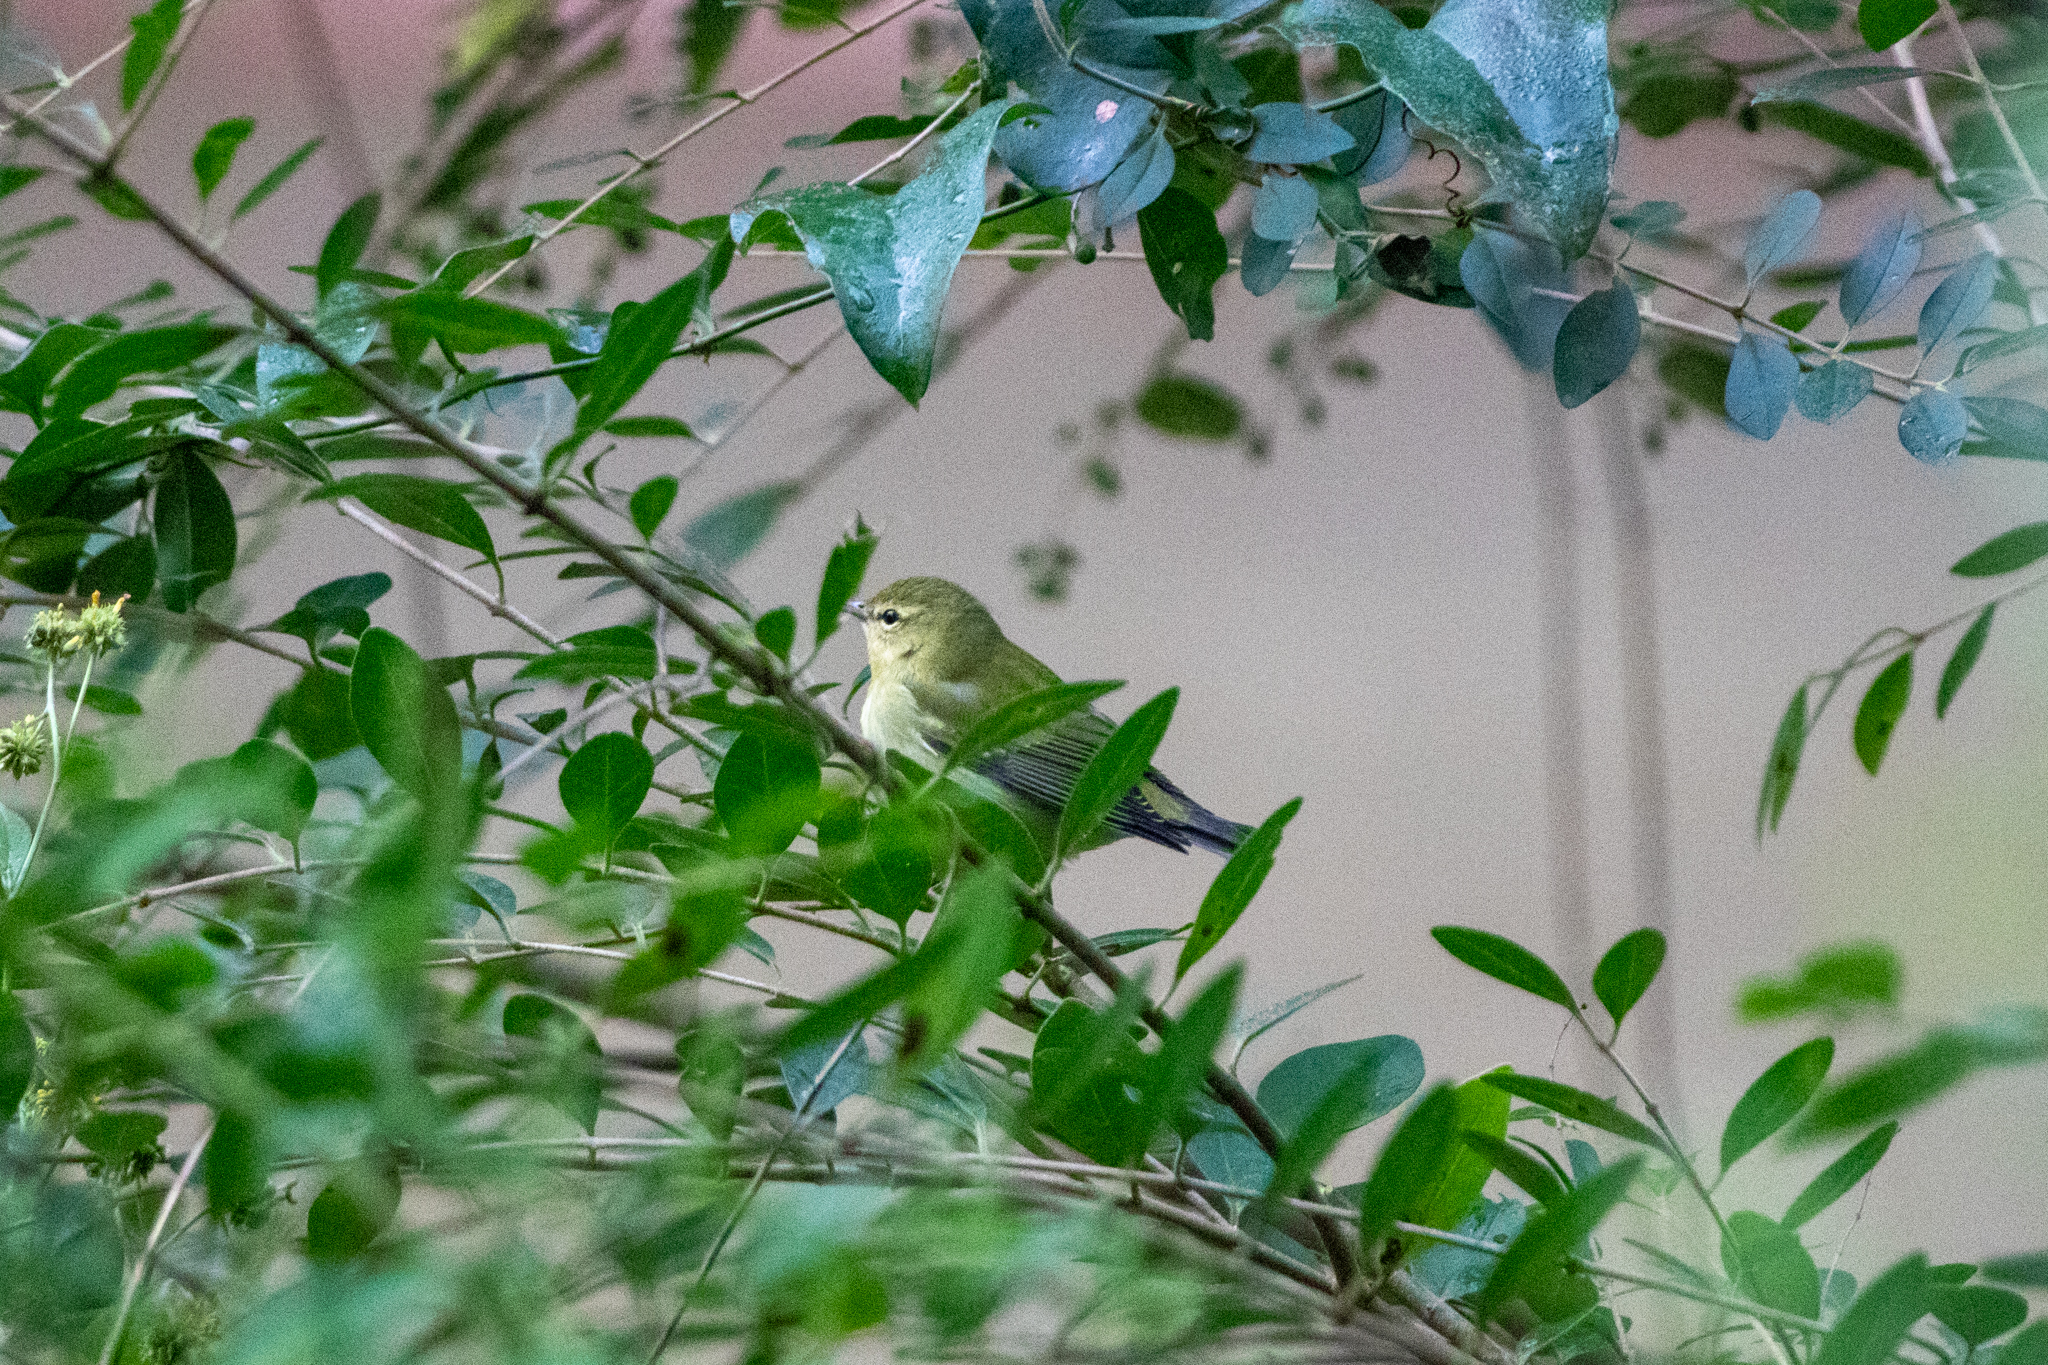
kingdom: Animalia
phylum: Chordata
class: Aves
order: Passeriformes
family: Parulidae
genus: Leiothlypis
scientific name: Leiothlypis peregrina
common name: Tennessee warbler
